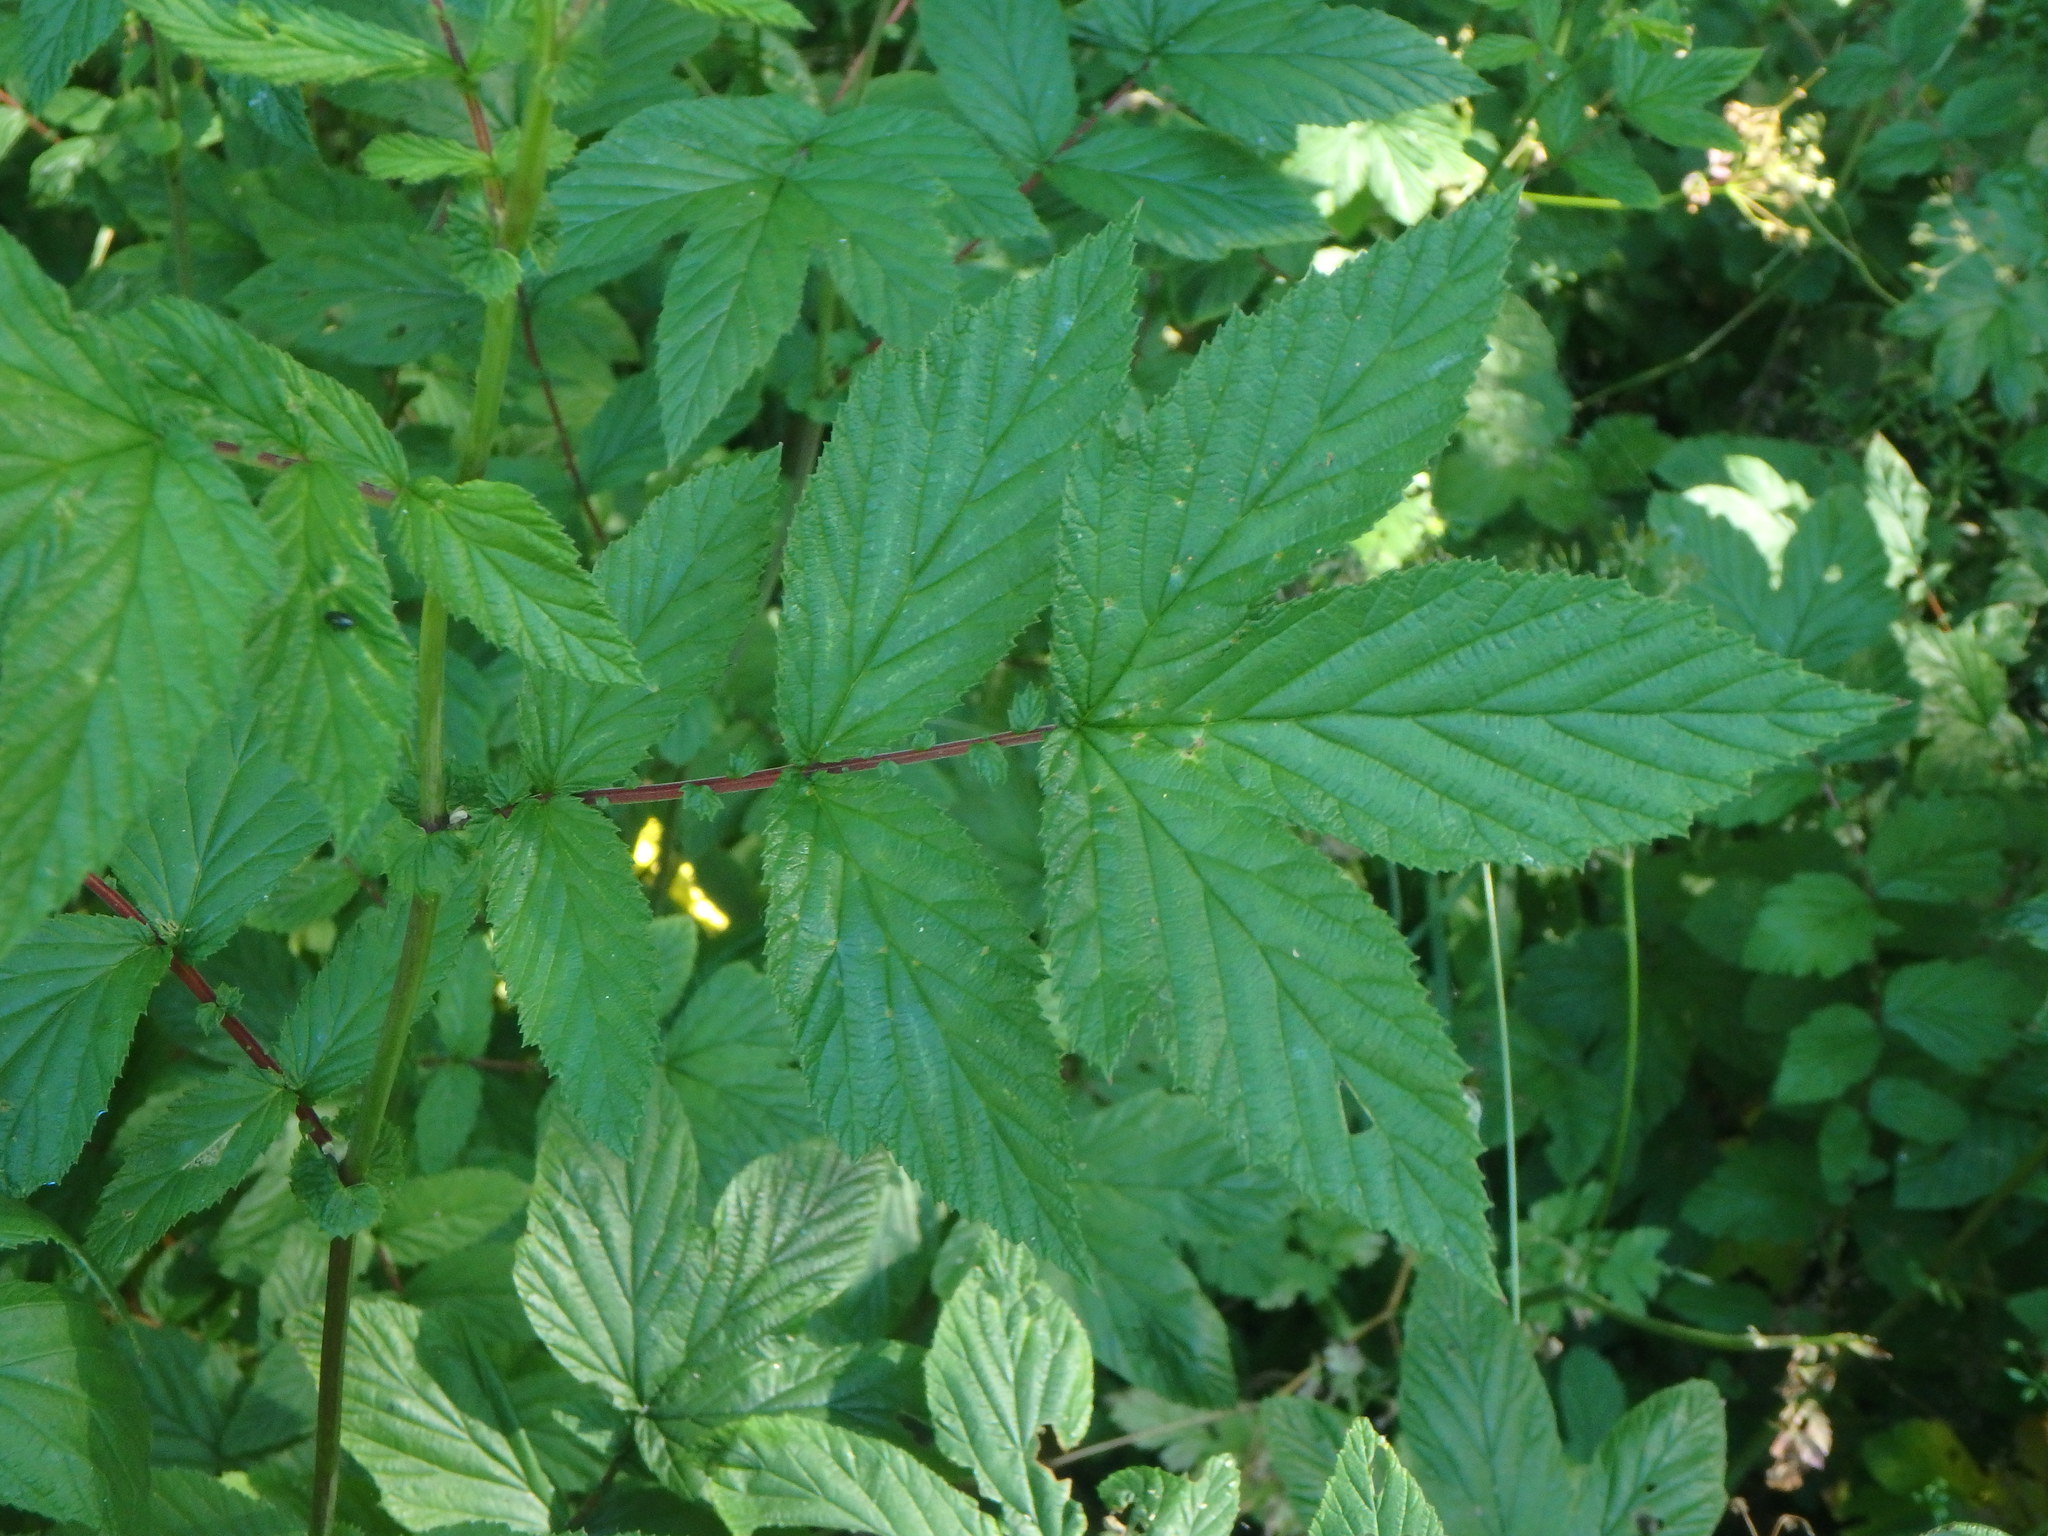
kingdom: Plantae
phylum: Tracheophyta
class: Magnoliopsida
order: Rosales
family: Rosaceae
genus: Filipendula
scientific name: Filipendula ulmaria
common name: Meadowsweet
